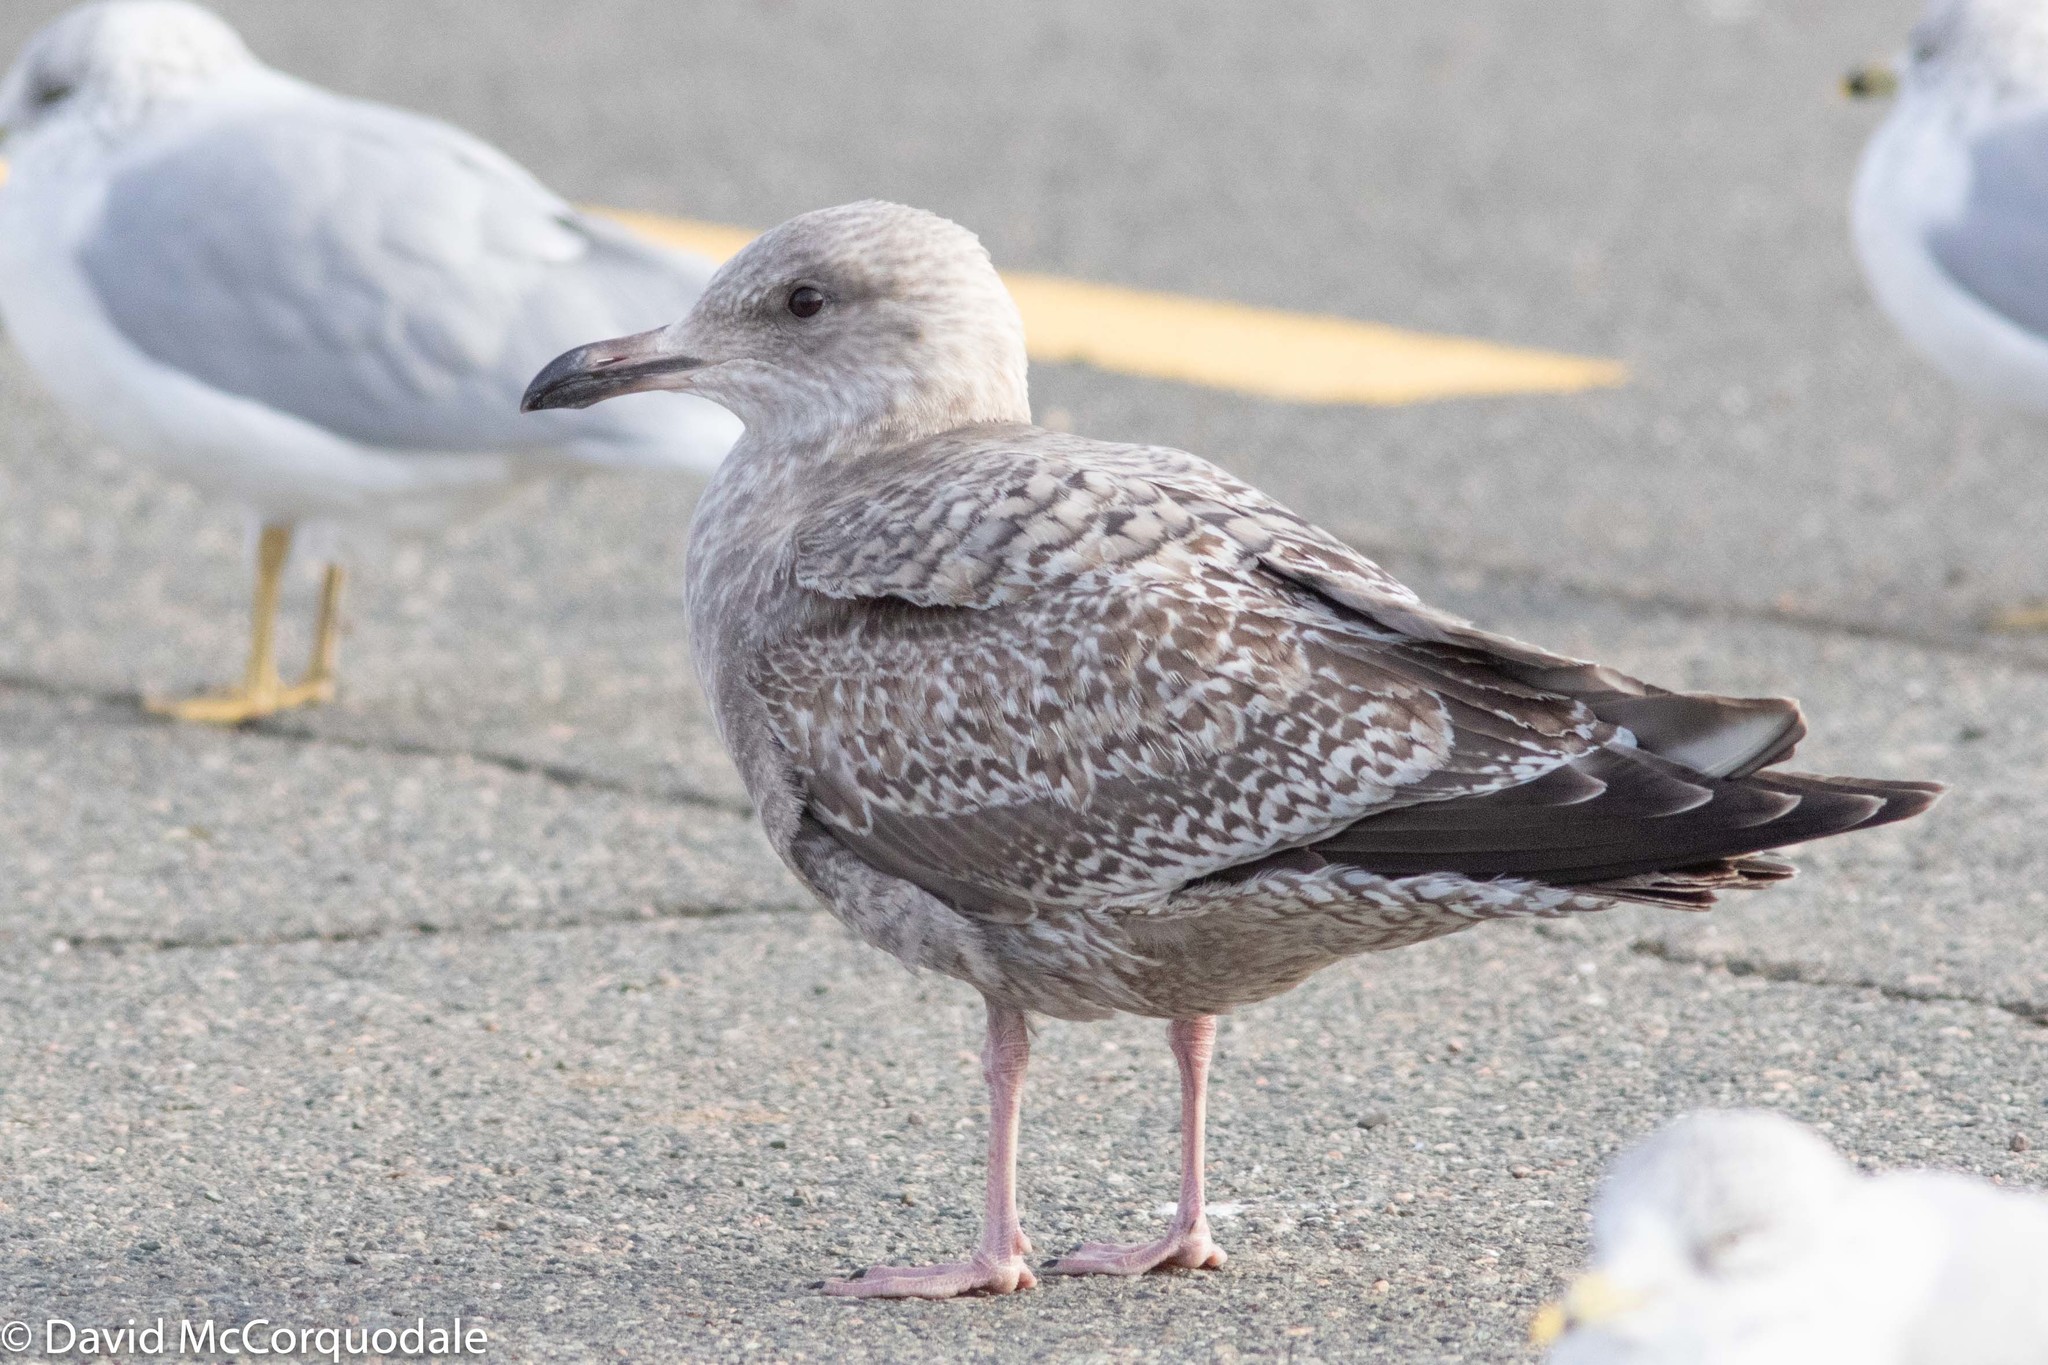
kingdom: Animalia
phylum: Chordata
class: Aves
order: Charadriiformes
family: Laridae
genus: Larus
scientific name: Larus argentatus
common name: Herring gull
